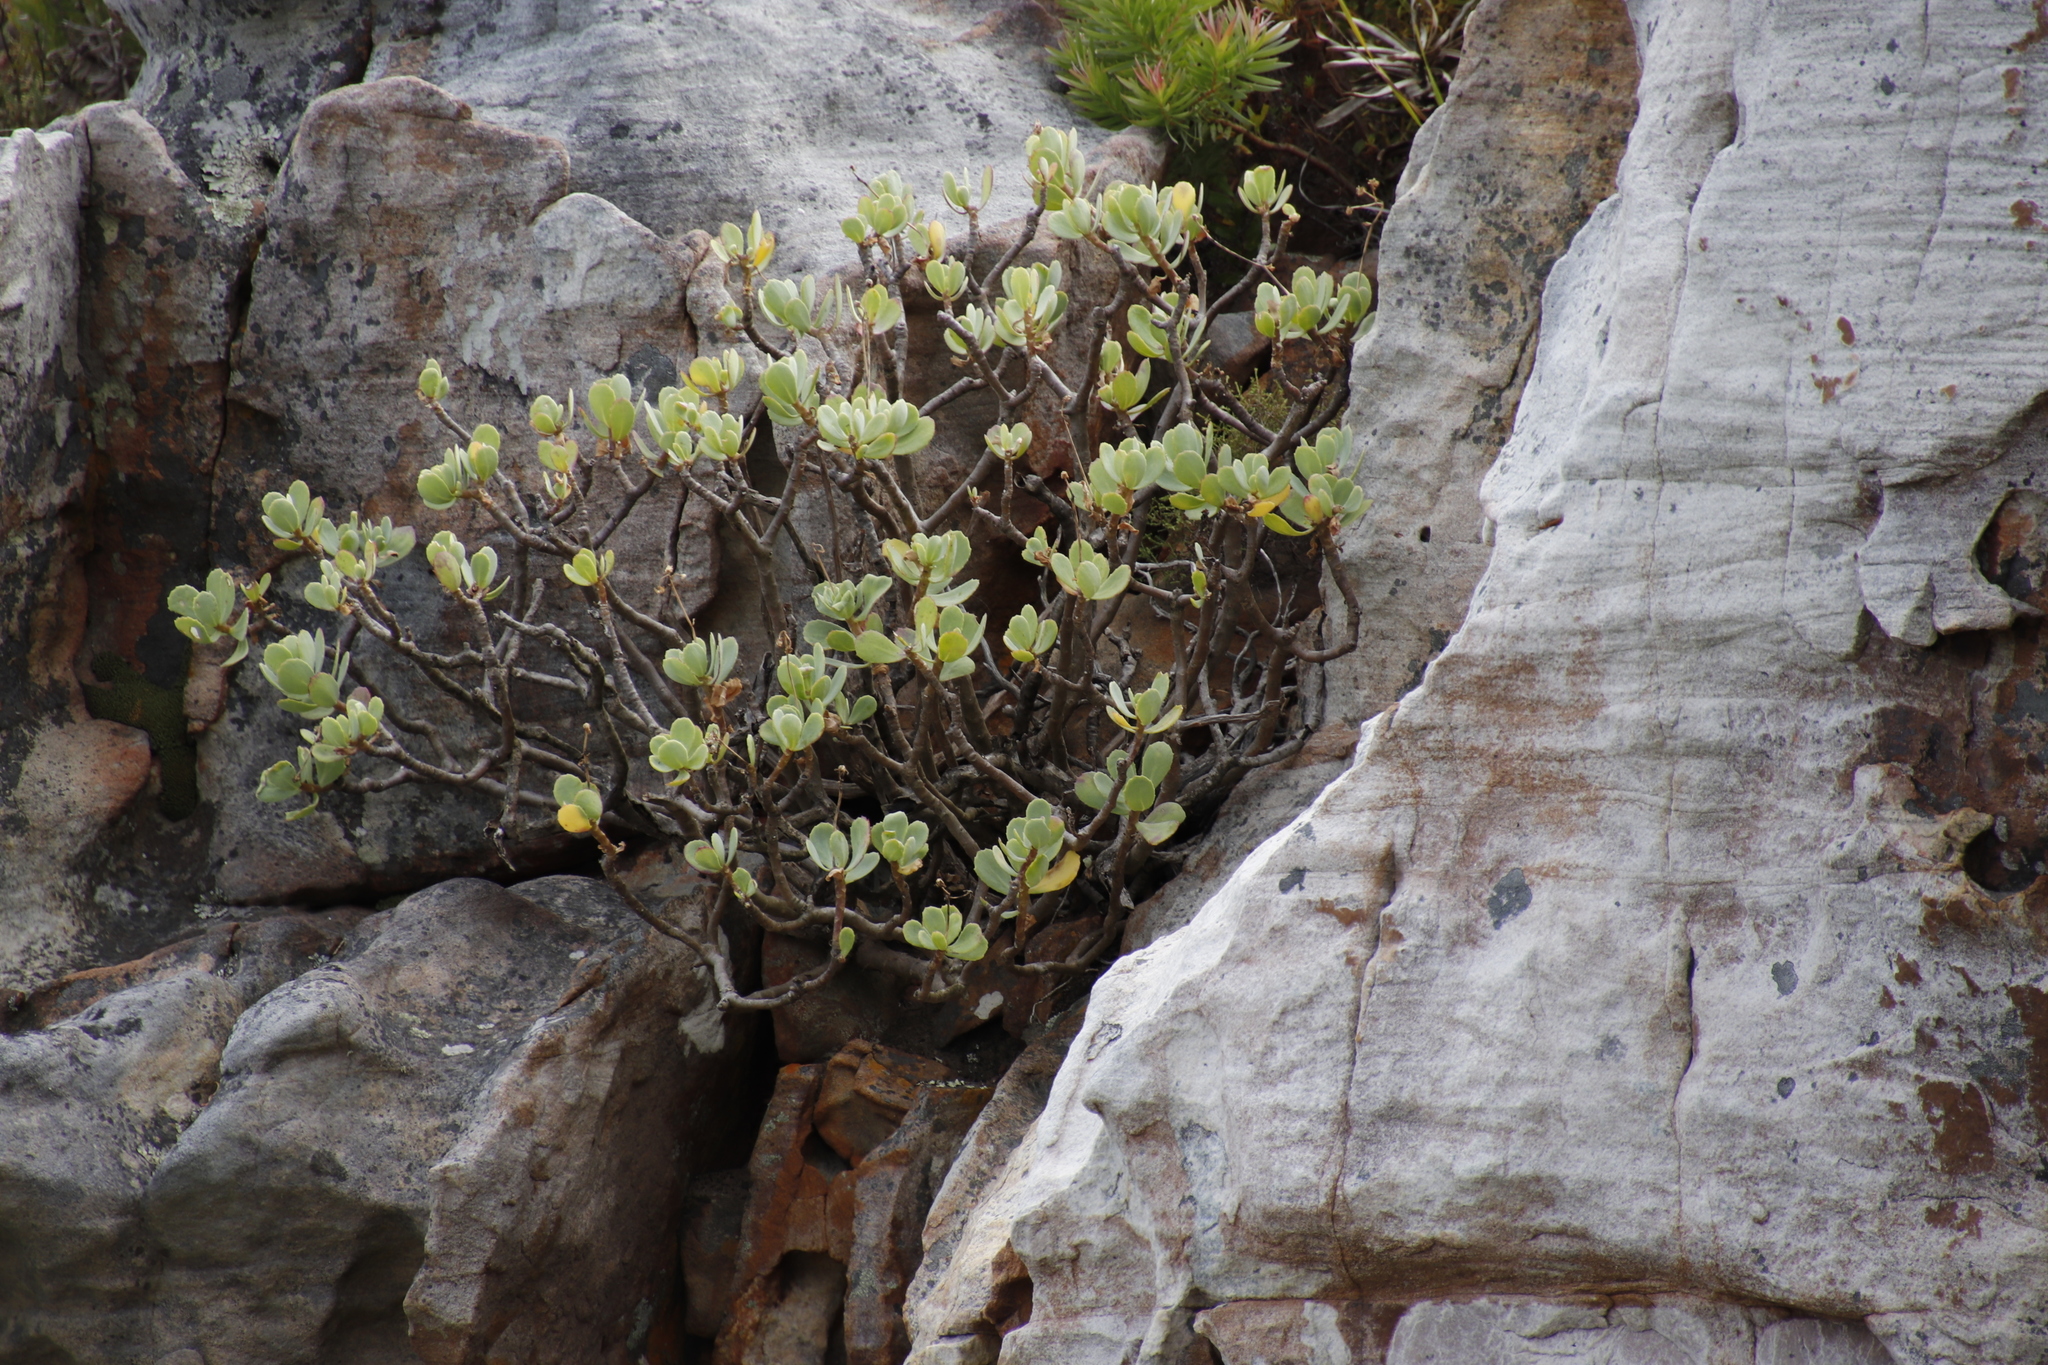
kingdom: Plantae
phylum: Tracheophyta
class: Magnoliopsida
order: Asterales
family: Asteraceae
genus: Othonna
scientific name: Othonna dentata
